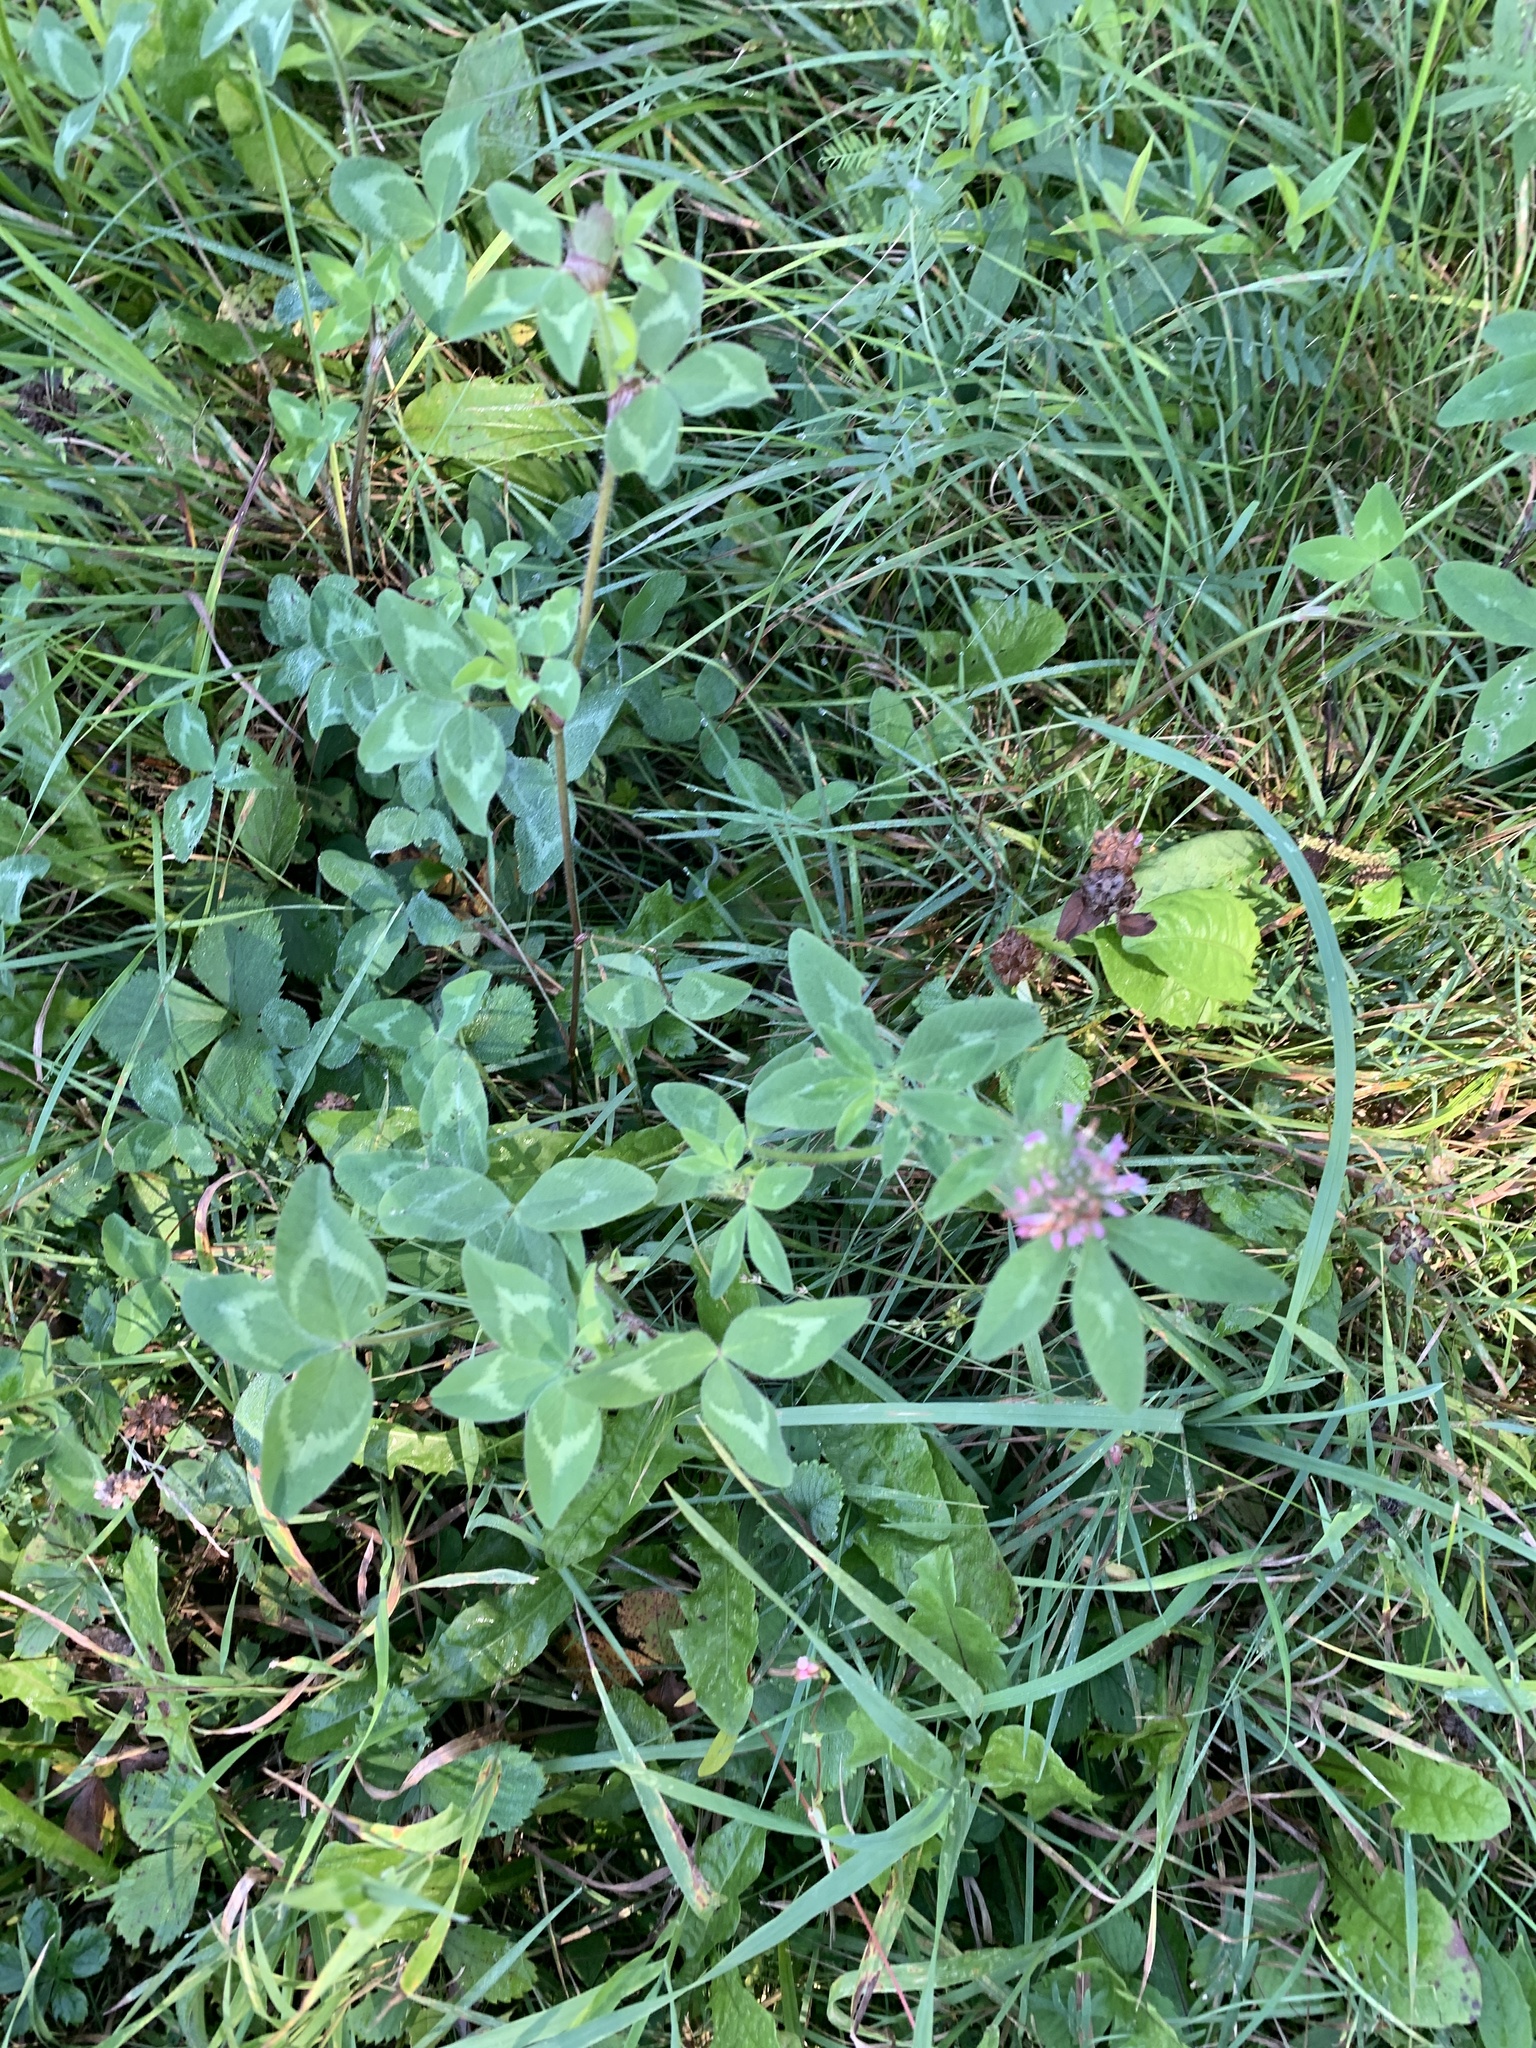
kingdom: Plantae
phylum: Tracheophyta
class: Magnoliopsida
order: Fabales
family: Fabaceae
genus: Trifolium
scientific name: Trifolium pratense
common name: Red clover
